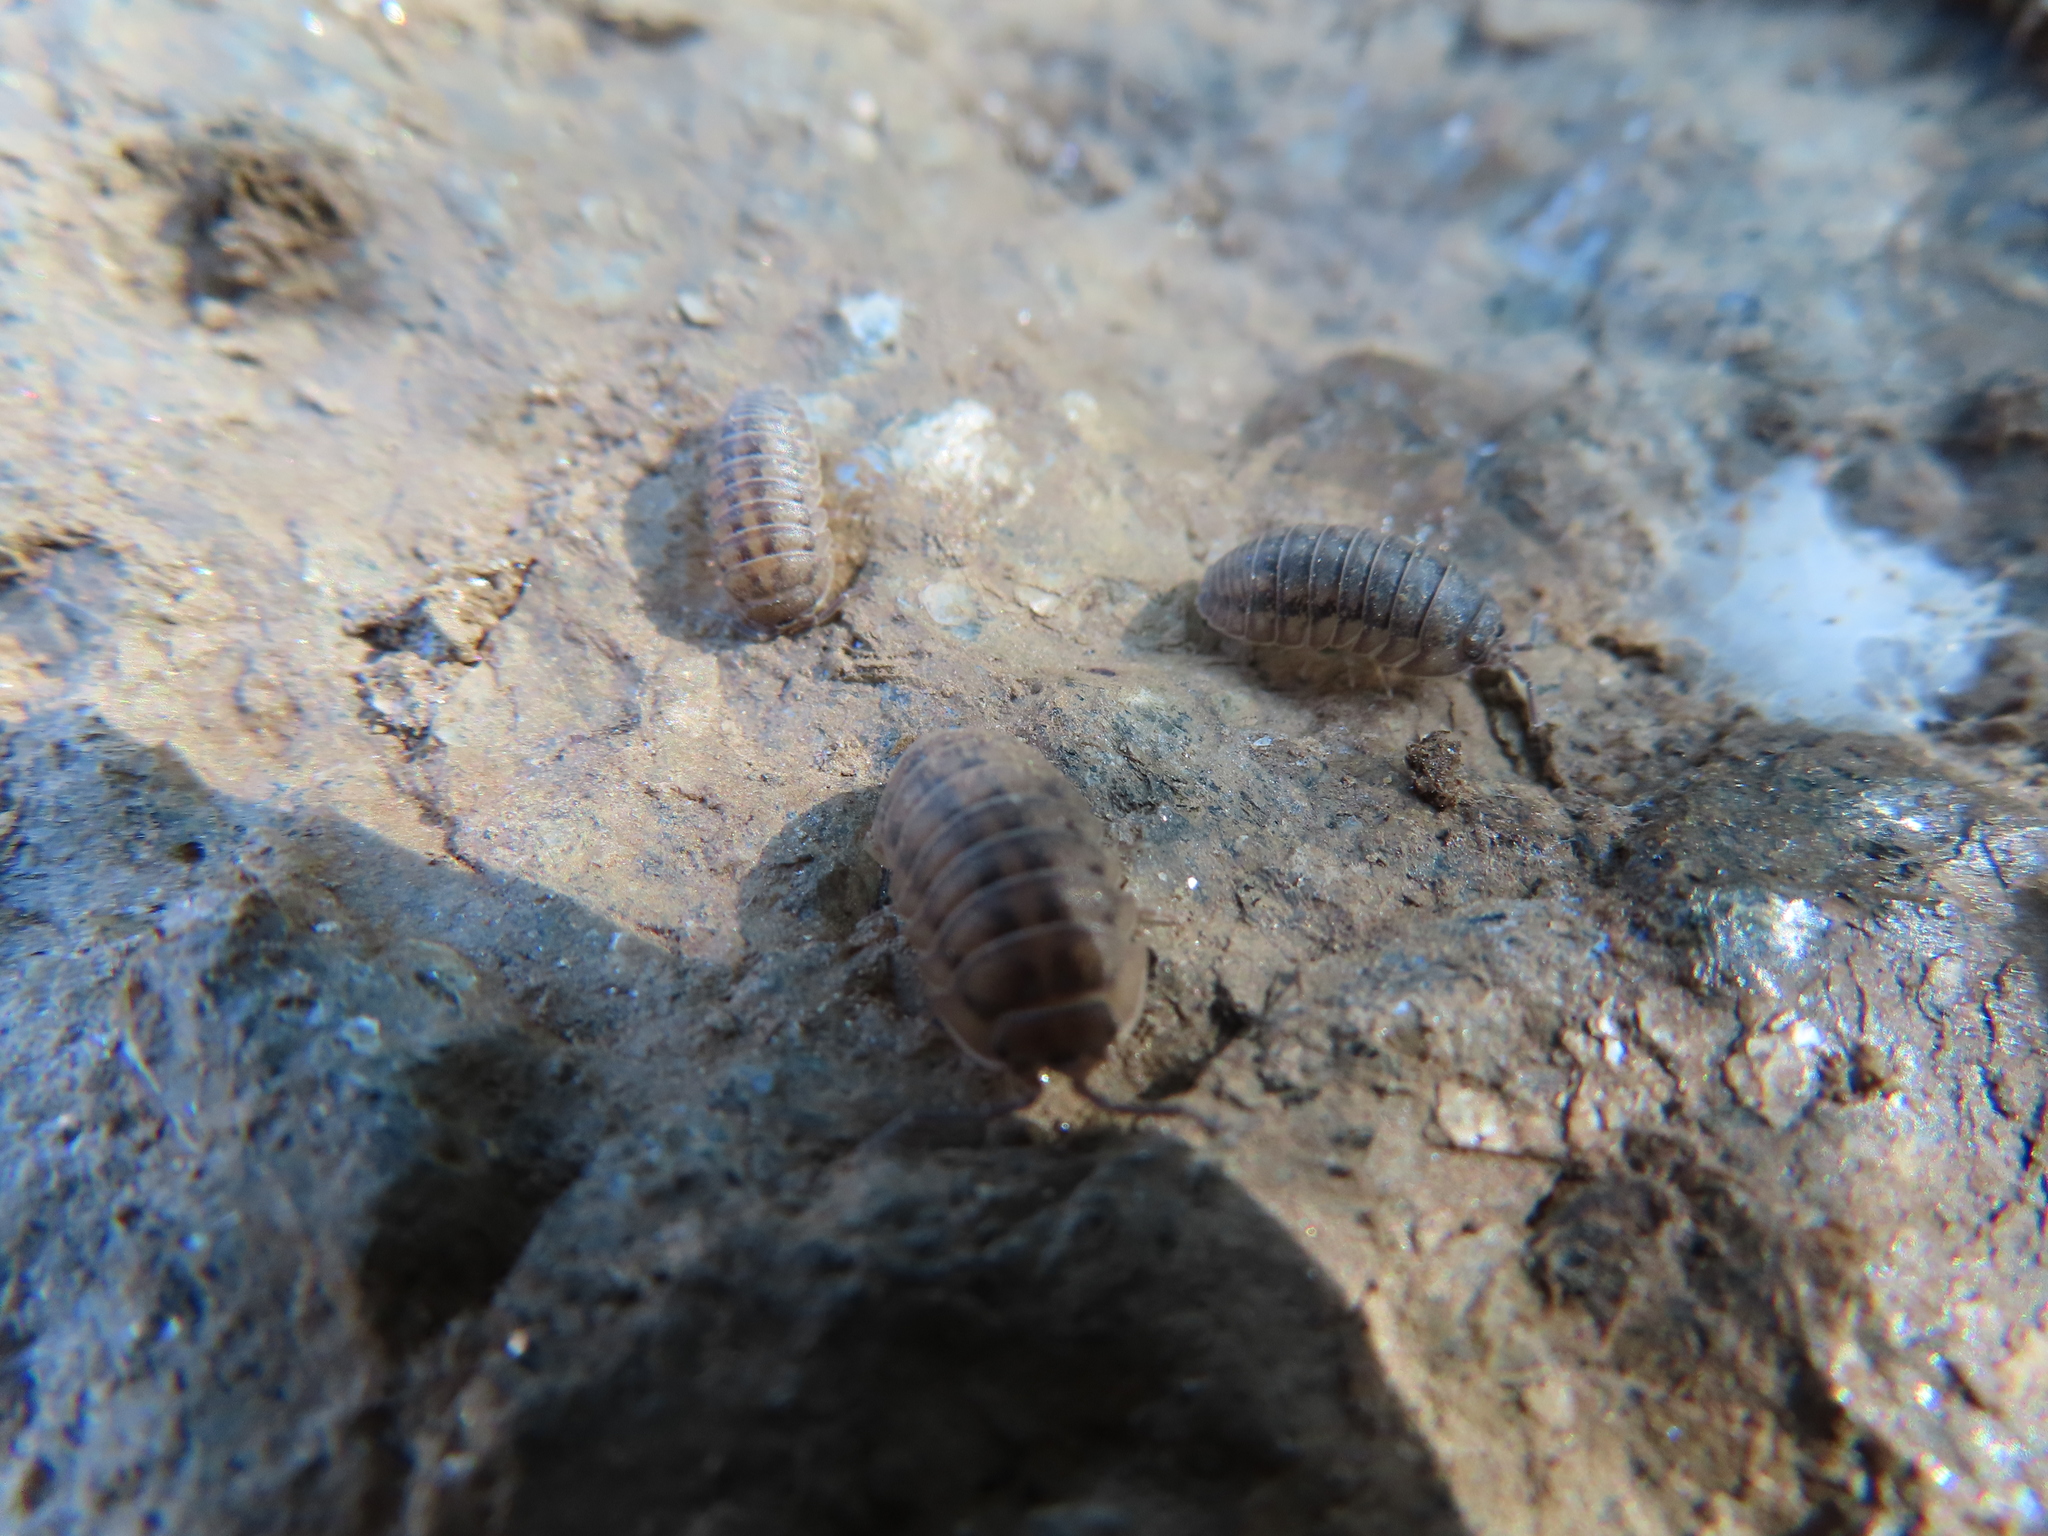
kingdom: Animalia
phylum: Arthropoda
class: Malacostraca
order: Isopoda
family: Armadillidiidae
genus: Armadillidium
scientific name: Armadillidium nasatum
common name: Isopod
